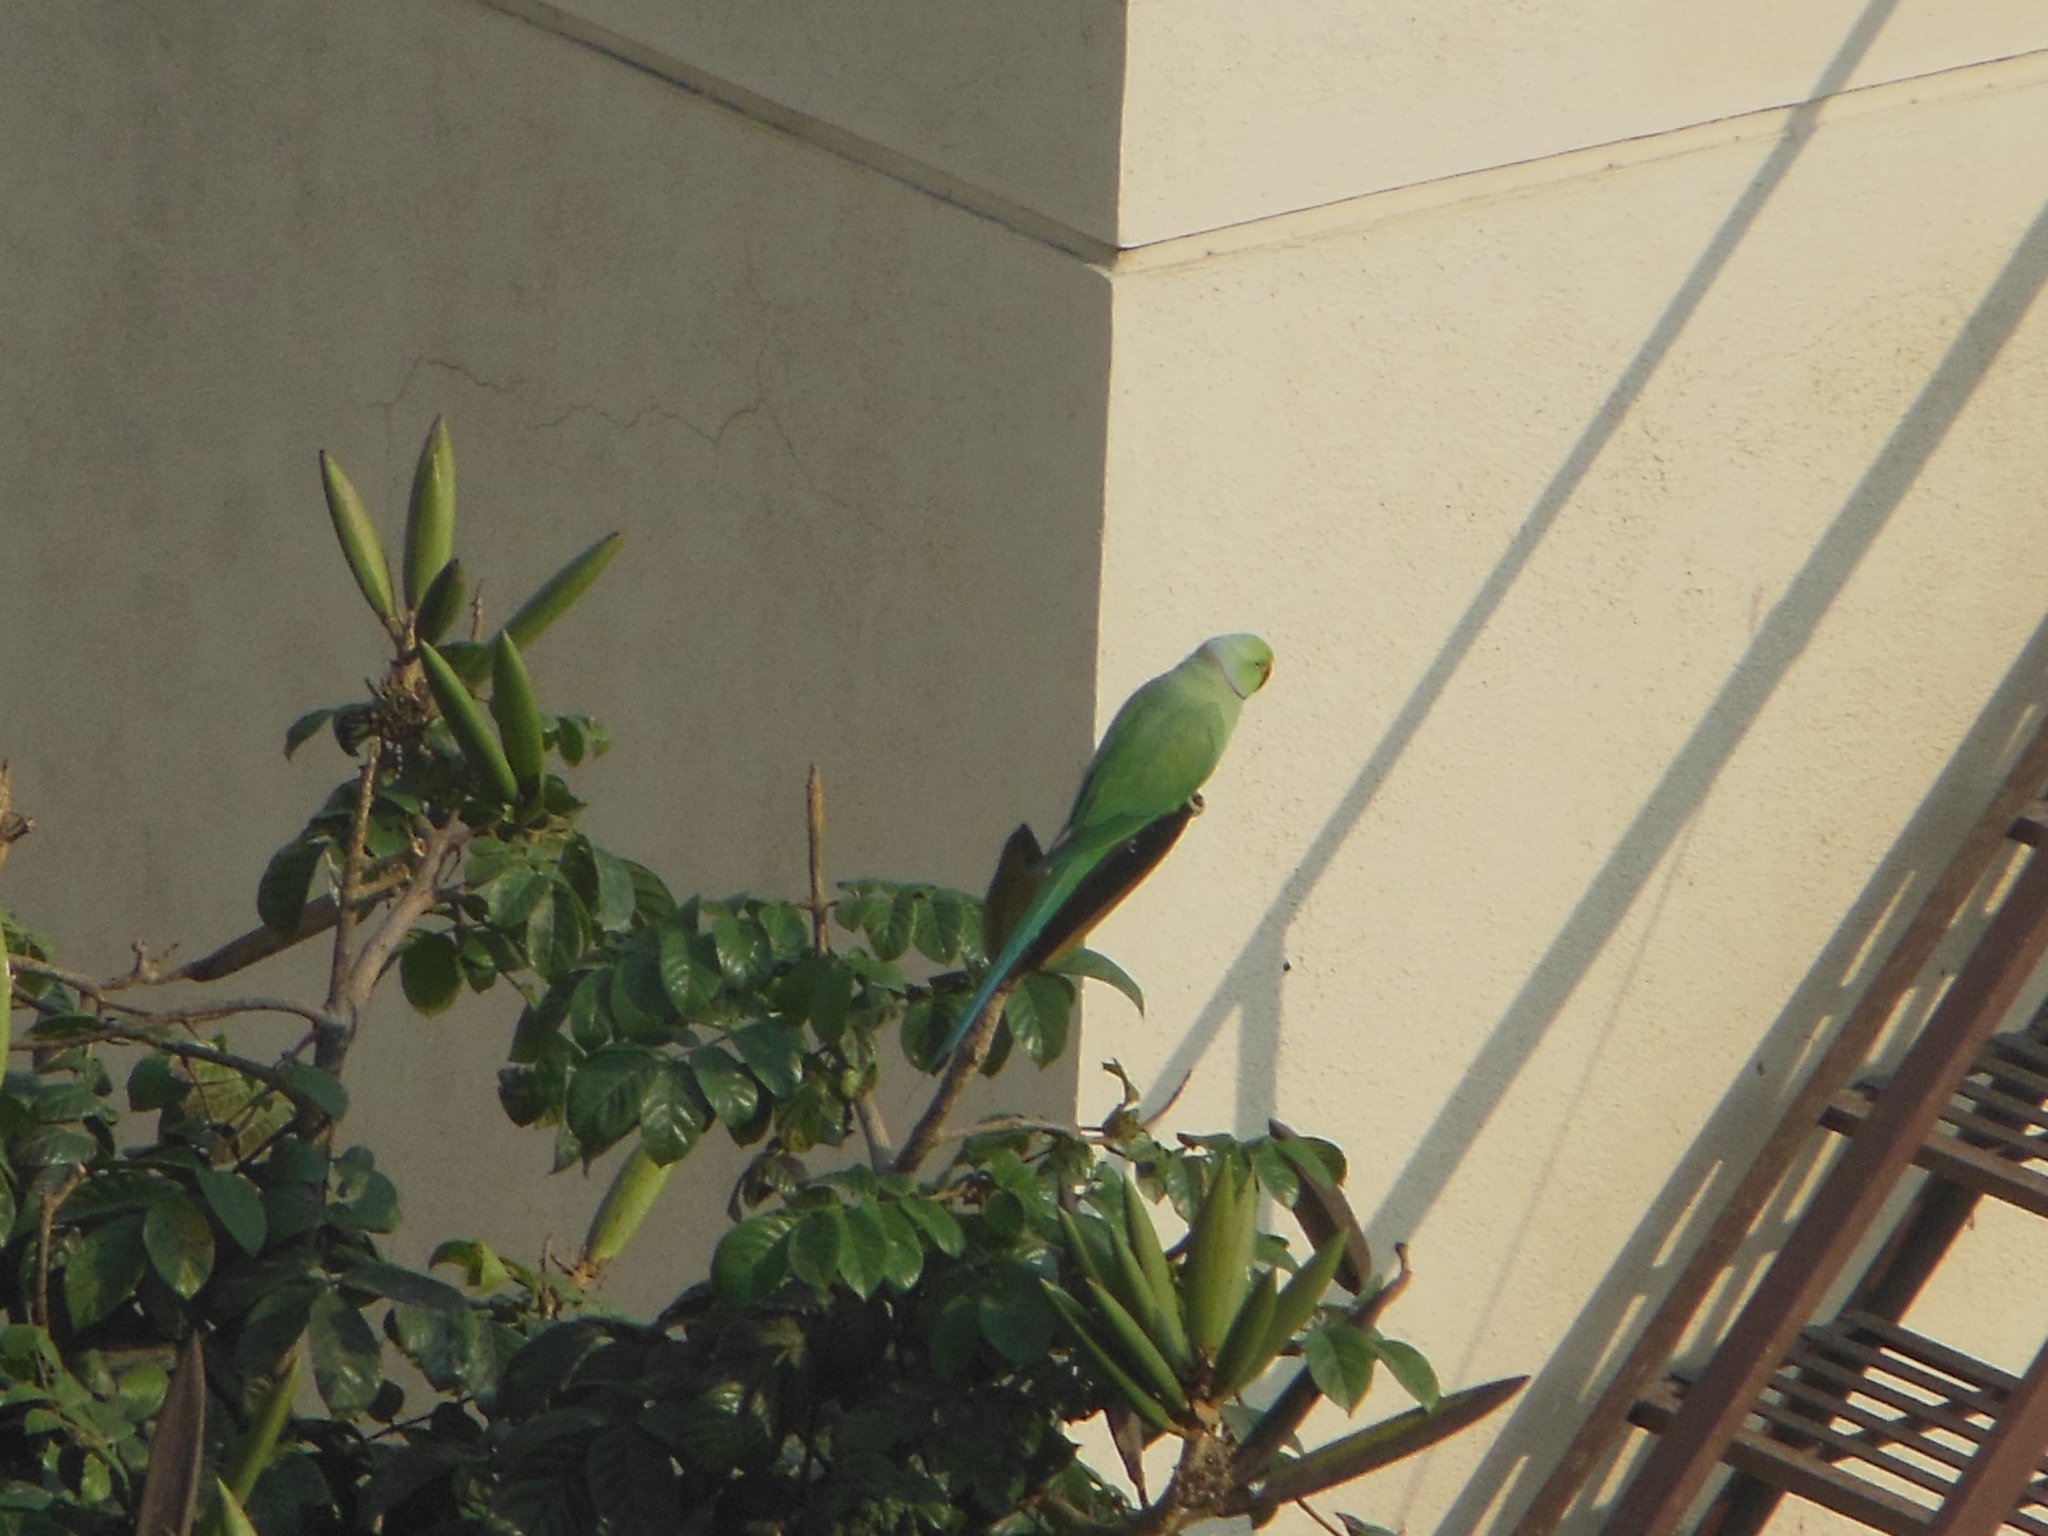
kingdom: Animalia
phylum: Chordata
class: Aves
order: Psittaciformes
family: Psittacidae
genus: Psittacula
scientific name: Psittacula krameri
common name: Rose-ringed parakeet
